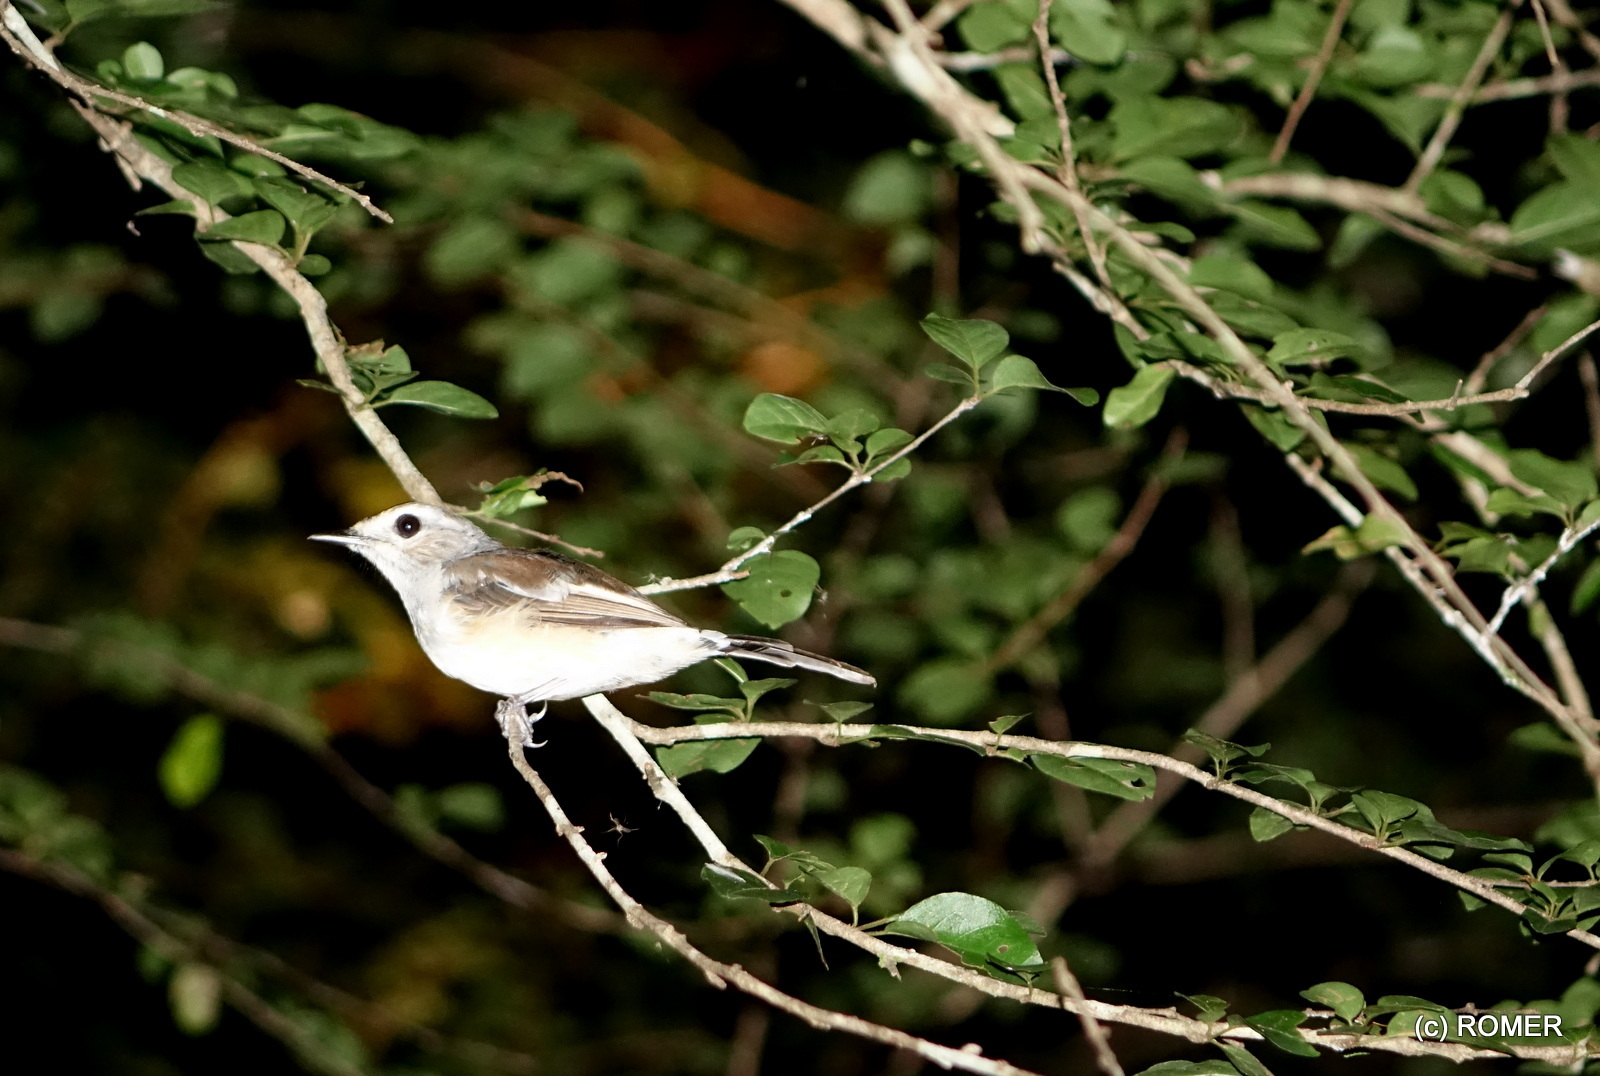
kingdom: Animalia
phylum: Chordata
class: Aves
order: Passeriformes
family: Muscicapidae
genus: Copsychus
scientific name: Copsychus albospecularis
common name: Madagascar magpie-robin
